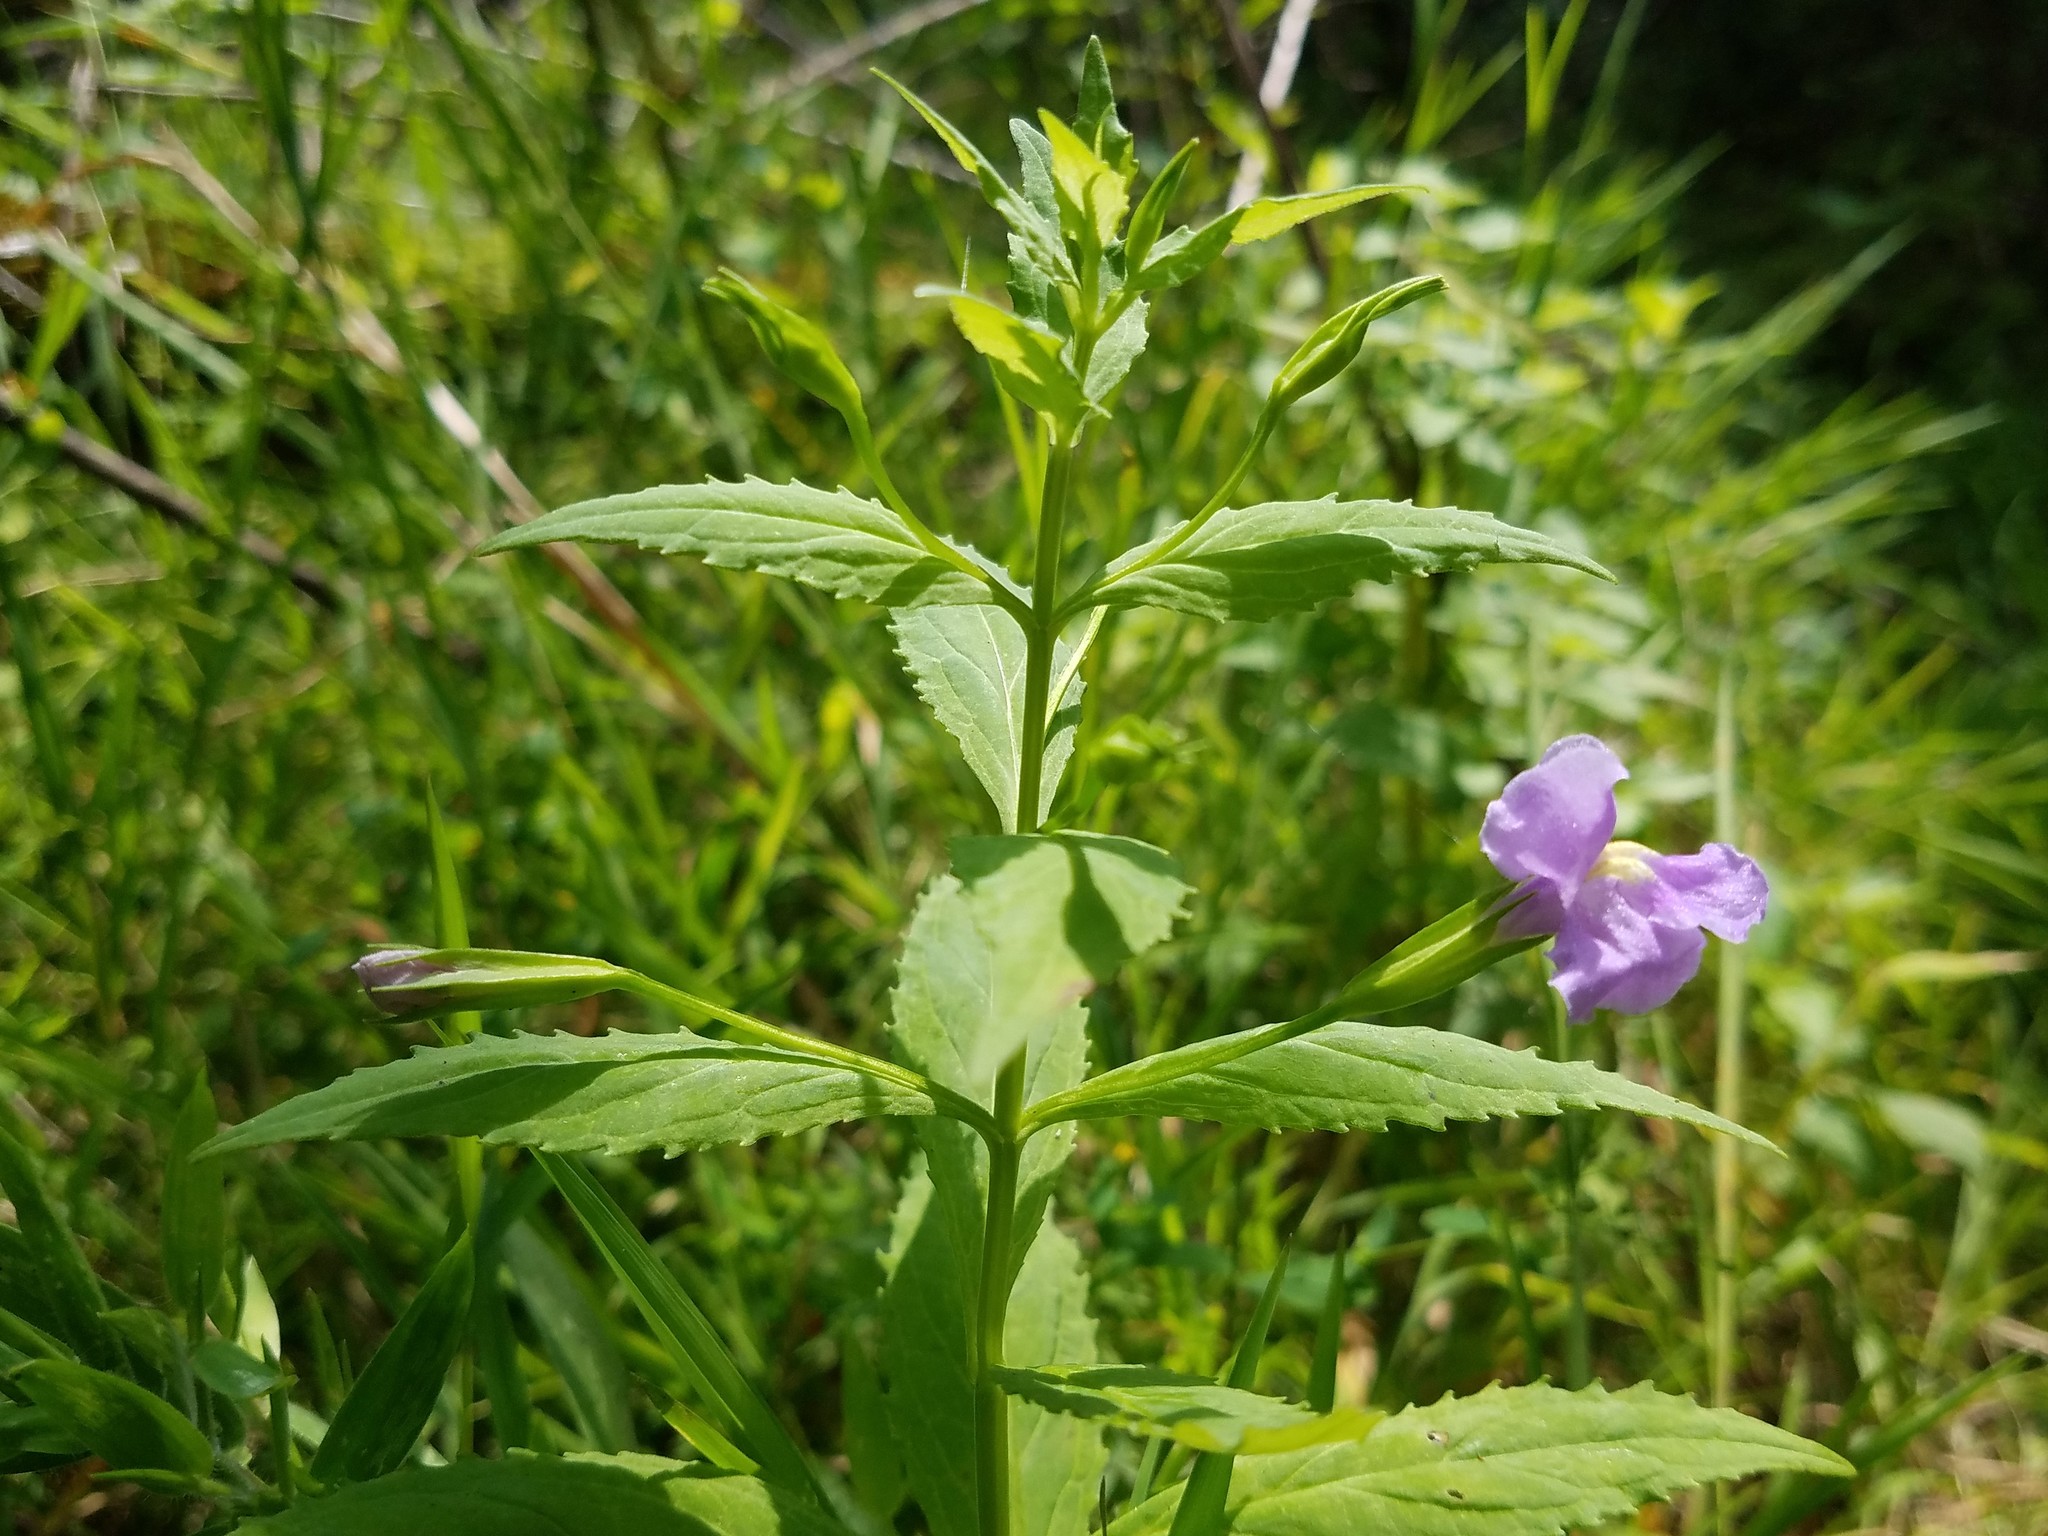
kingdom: Plantae
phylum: Tracheophyta
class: Magnoliopsida
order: Lamiales
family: Phrymaceae
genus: Mimulus
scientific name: Mimulus ringens
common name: Allegheny monkeyflower
